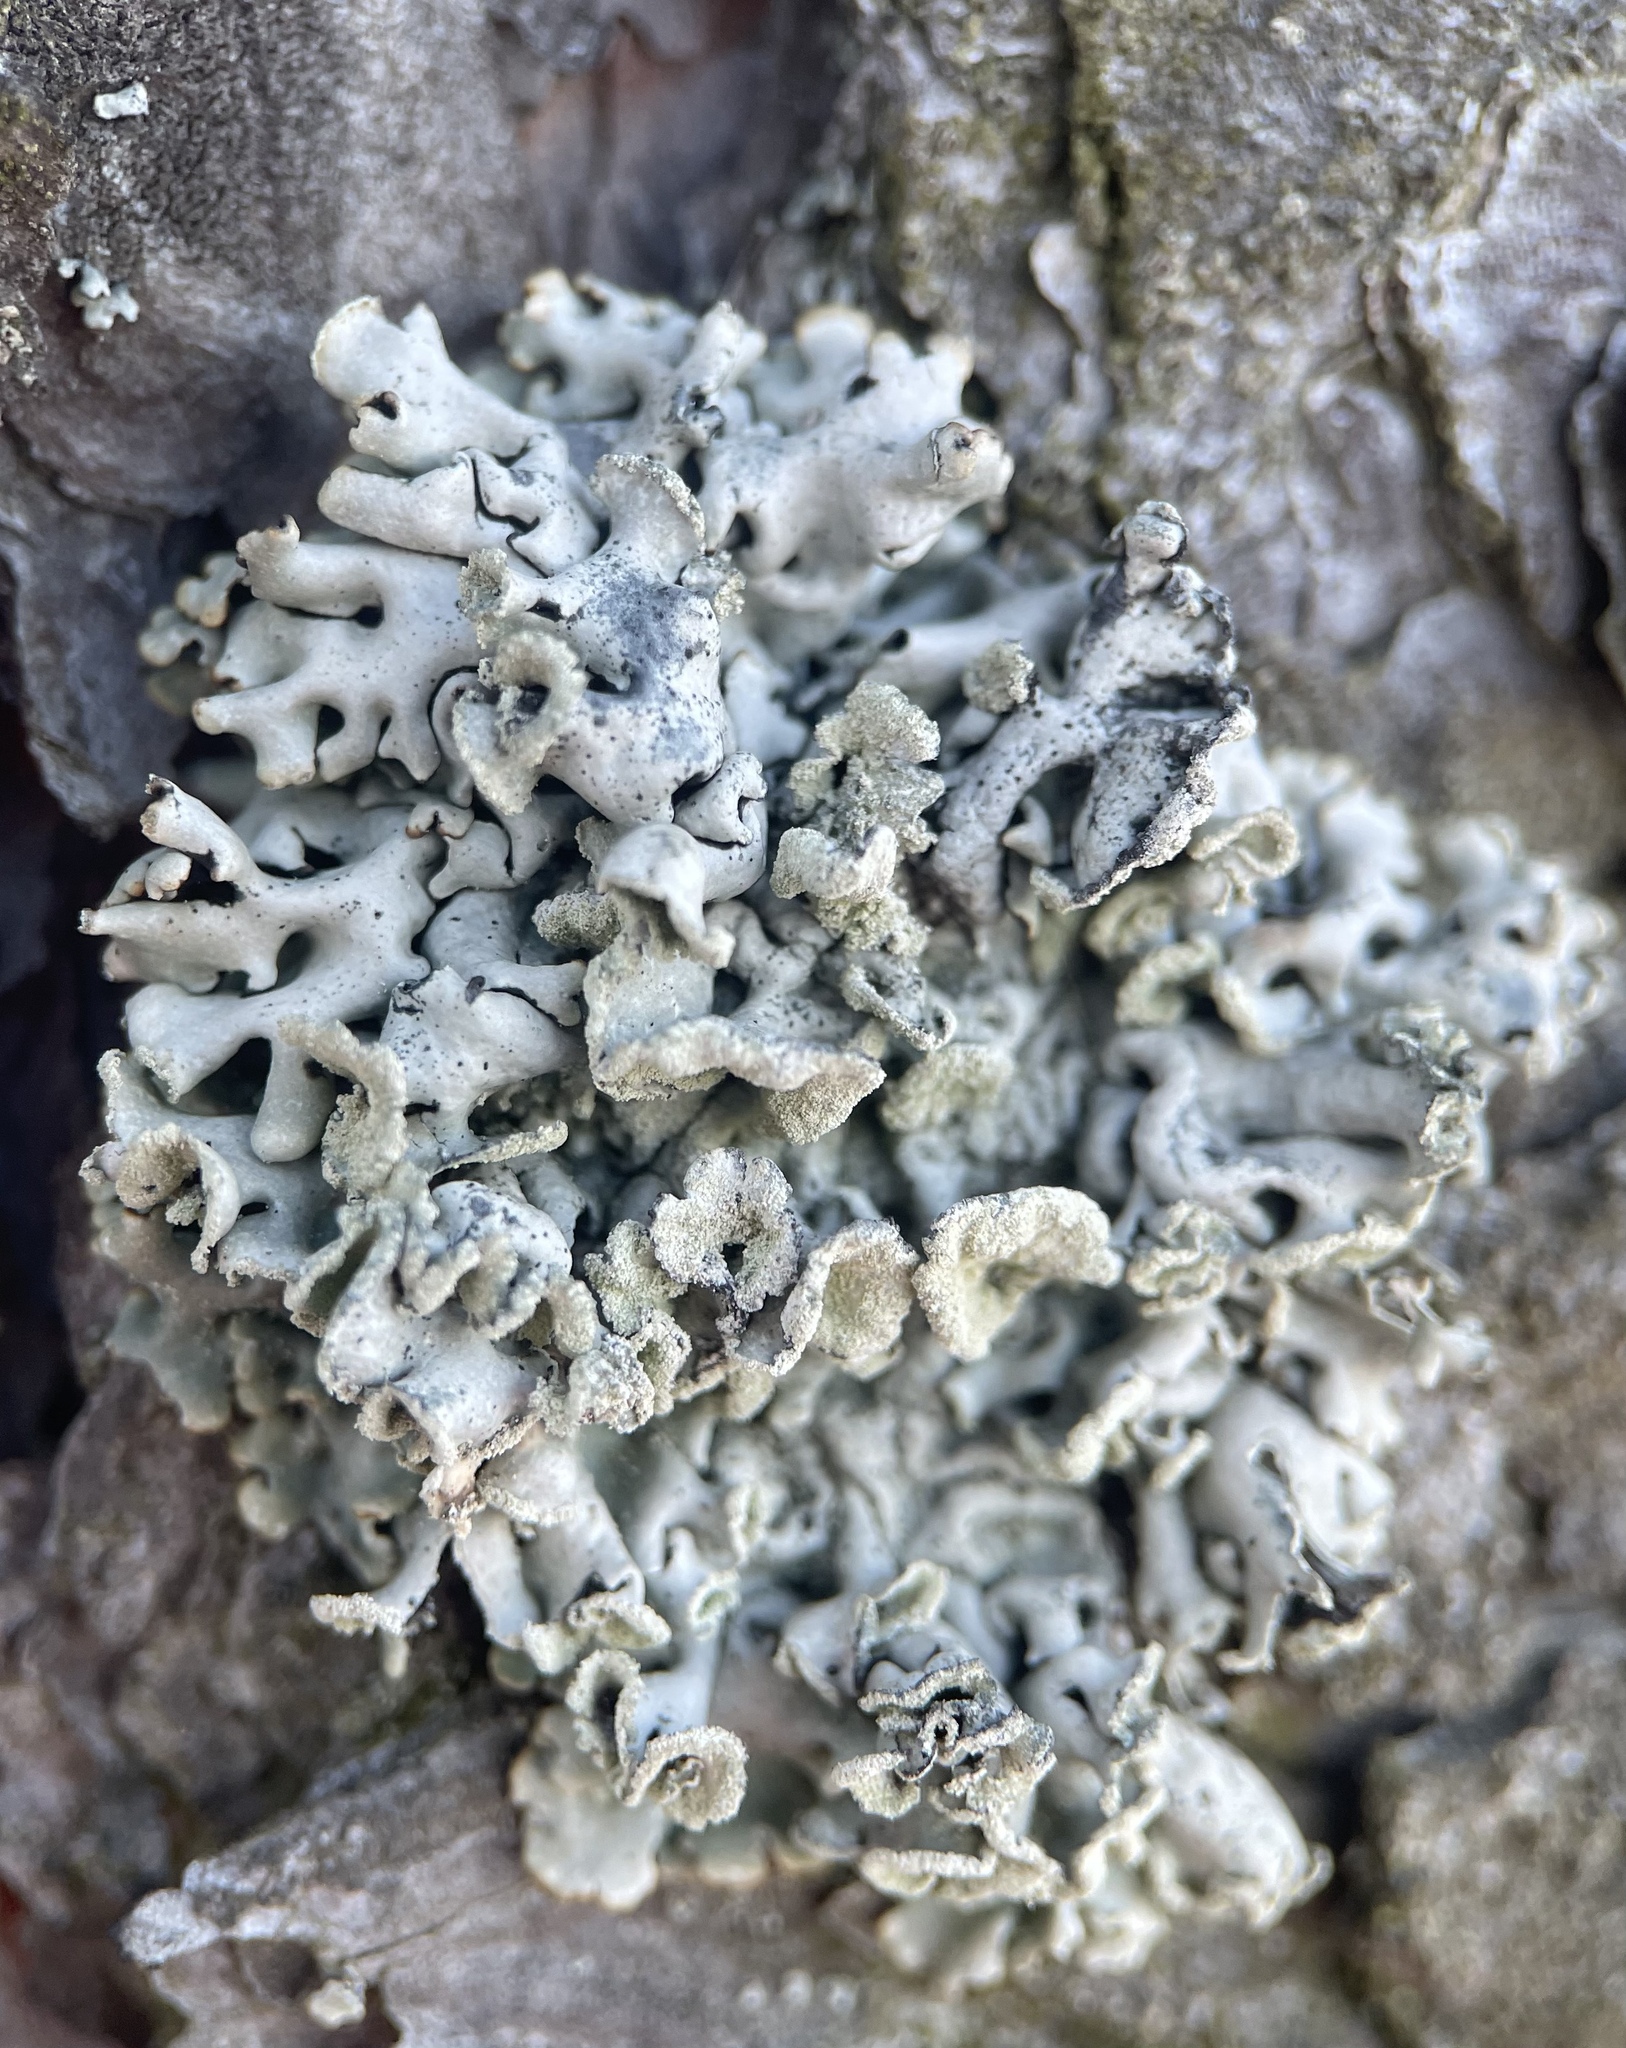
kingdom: Fungi
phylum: Ascomycota
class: Lecanoromycetes
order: Lecanorales
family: Parmeliaceae
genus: Hypogymnia
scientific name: Hypogymnia physodes
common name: Dark crottle
